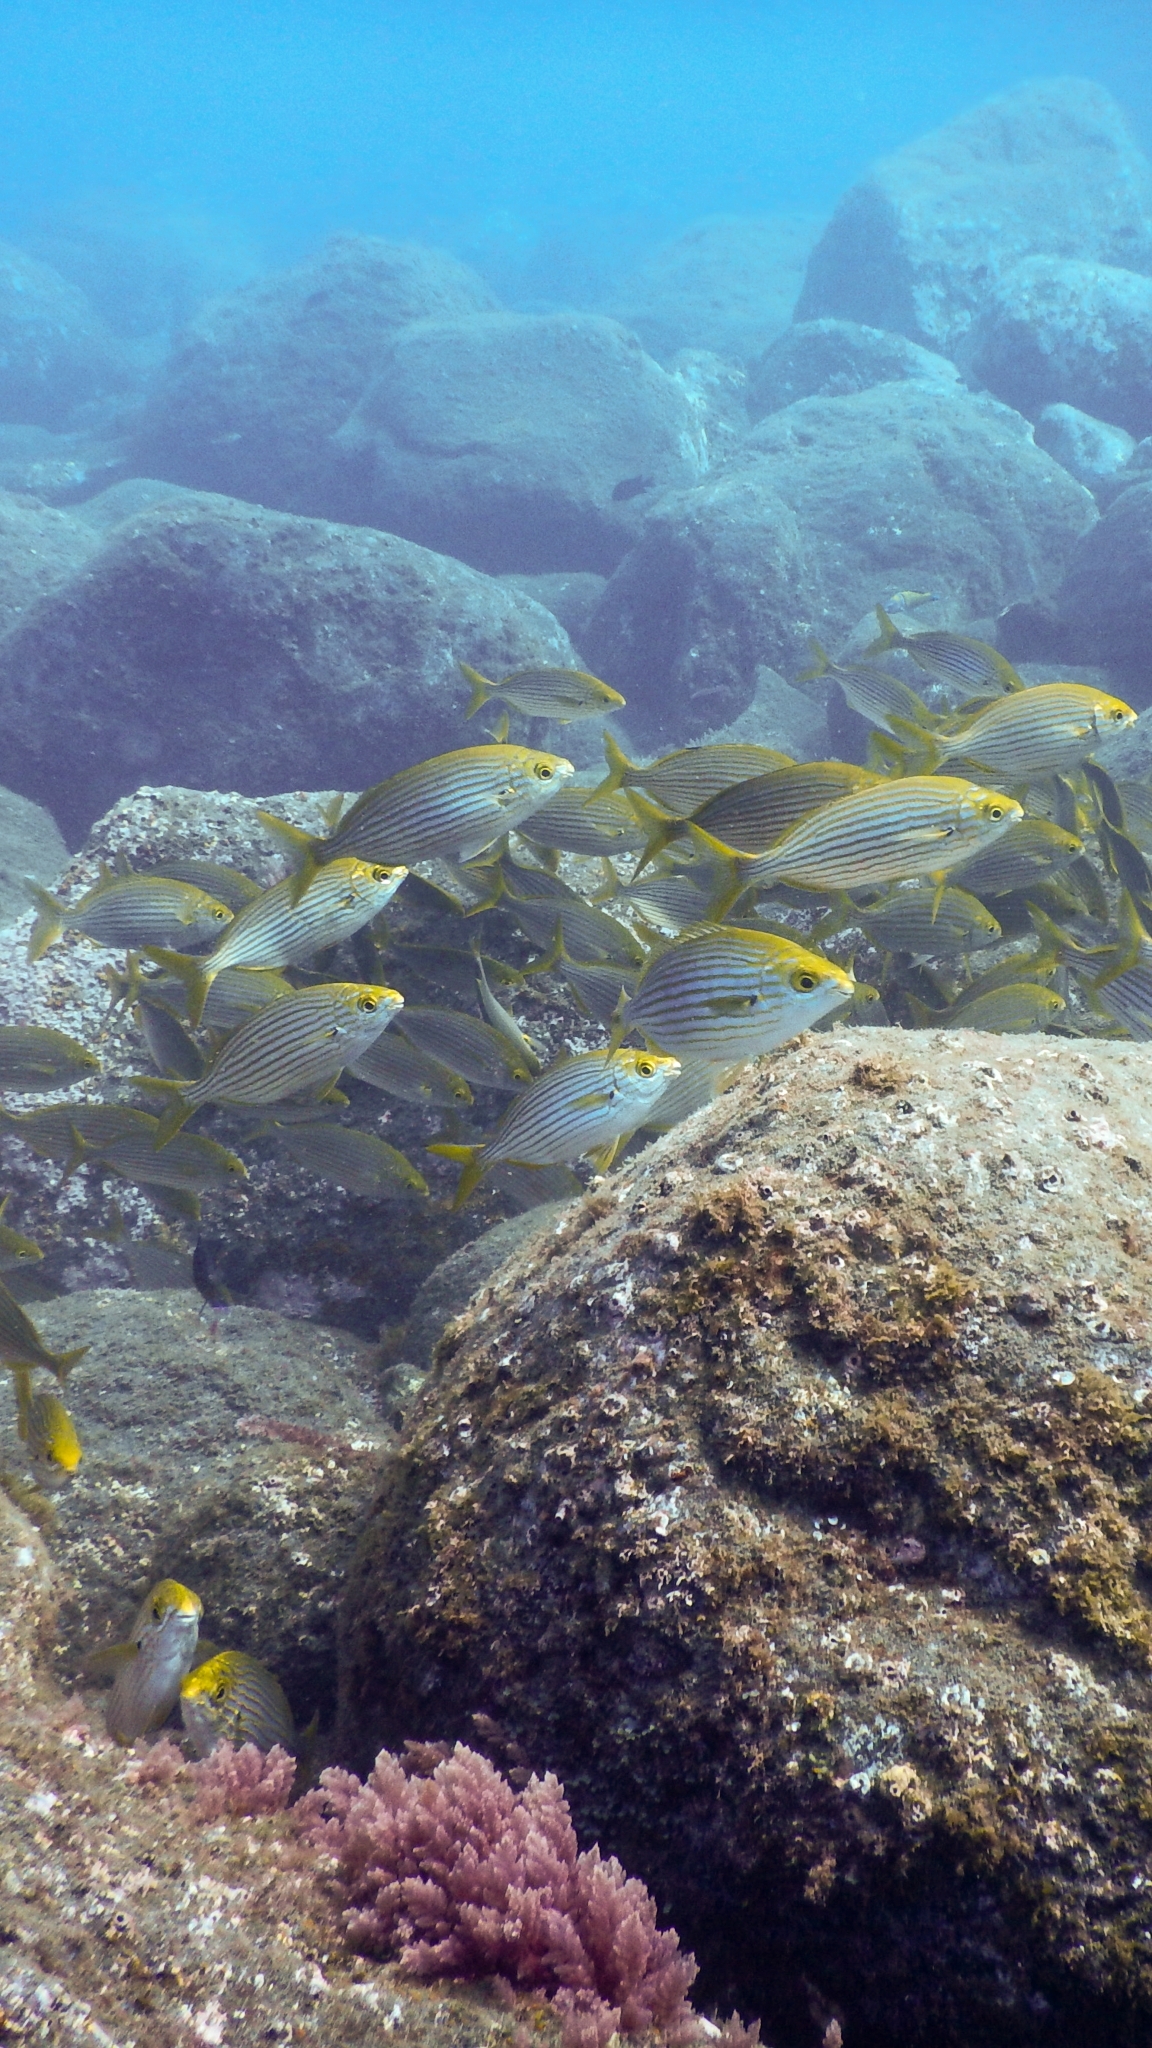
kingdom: Animalia
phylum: Chordata
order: Perciformes
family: Sparidae
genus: Sarpa
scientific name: Sarpa salpa
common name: Salema
